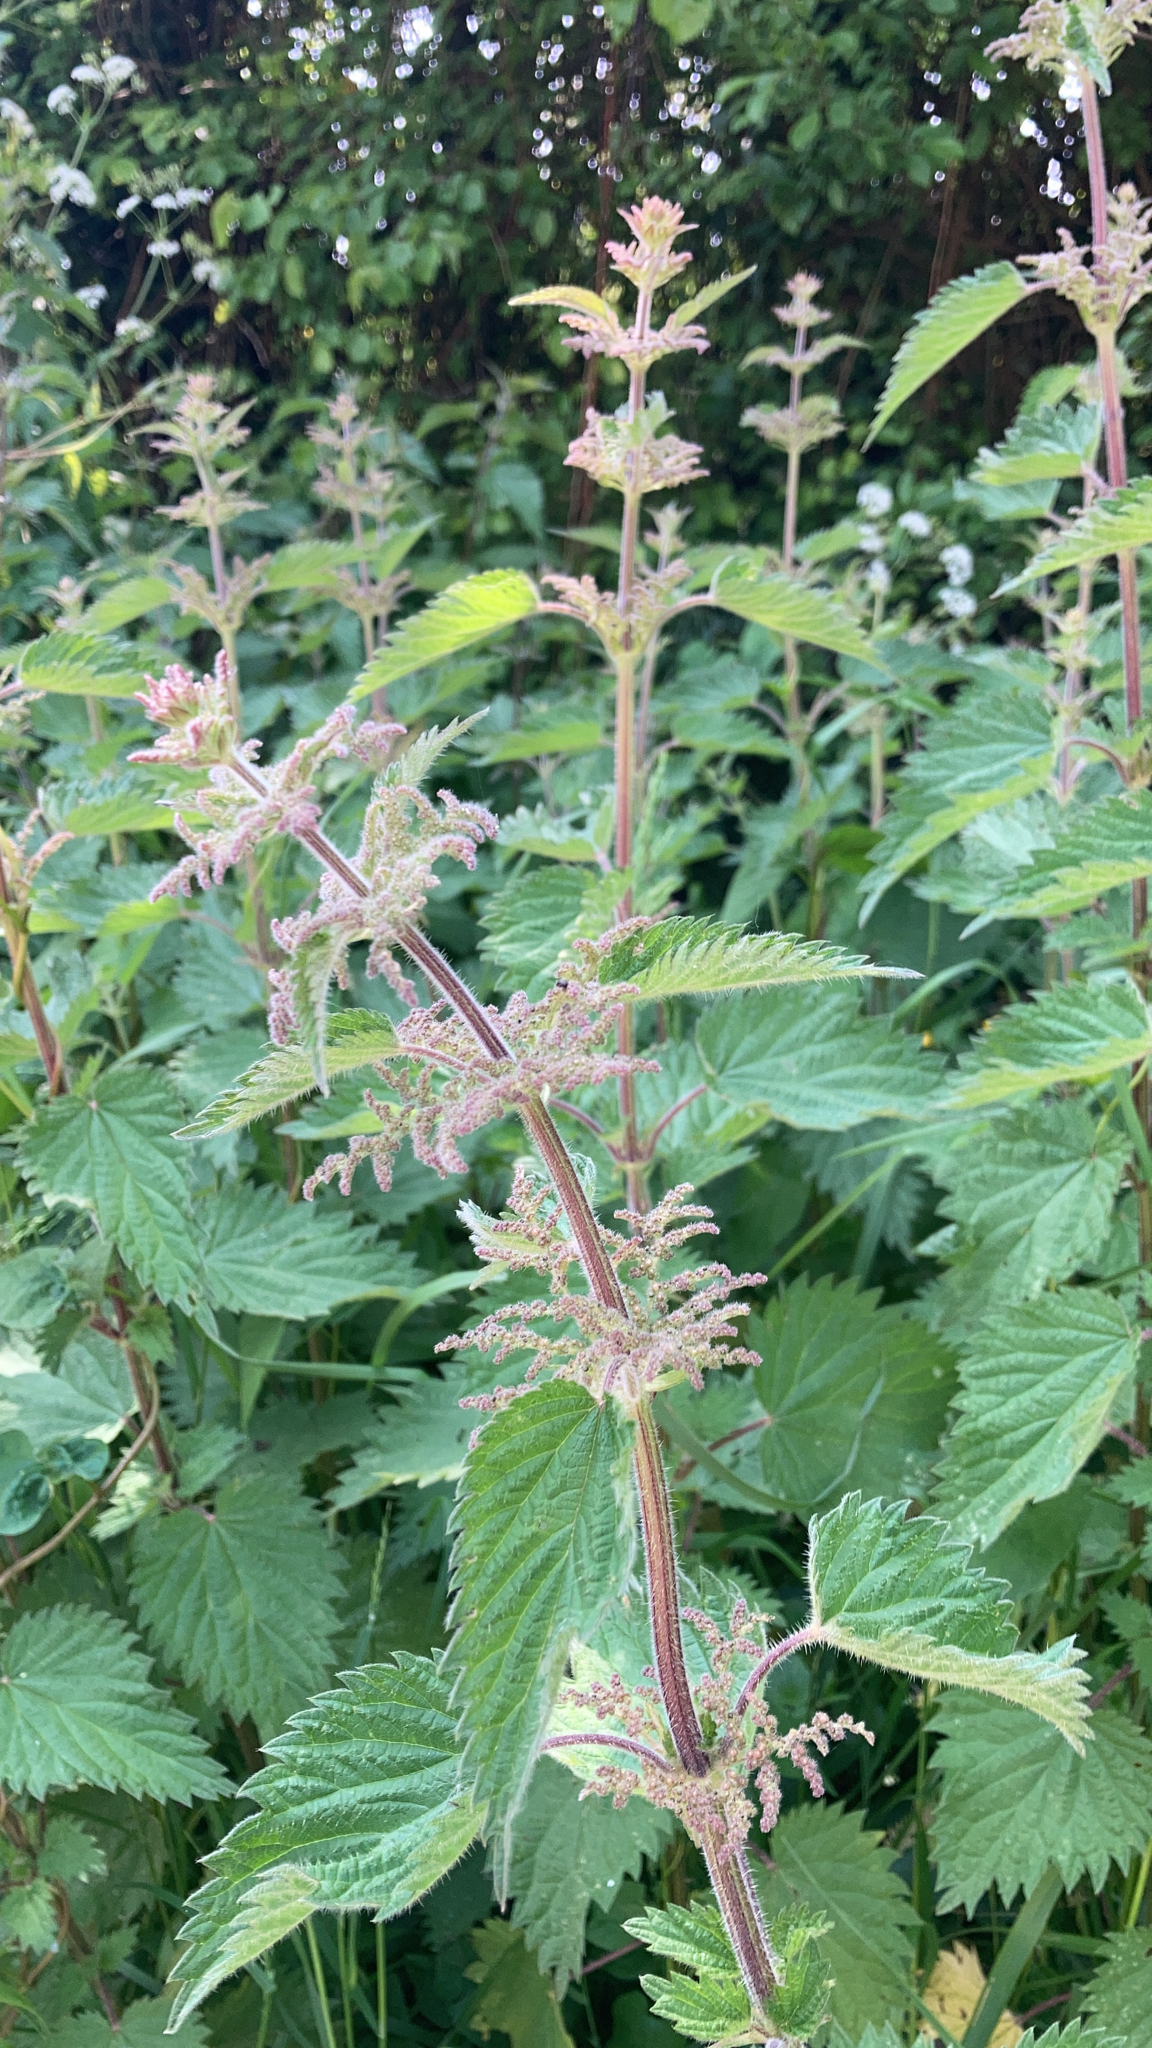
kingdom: Plantae
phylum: Tracheophyta
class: Magnoliopsida
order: Rosales
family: Urticaceae
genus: Urtica
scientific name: Urtica dioica
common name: Common nettle
